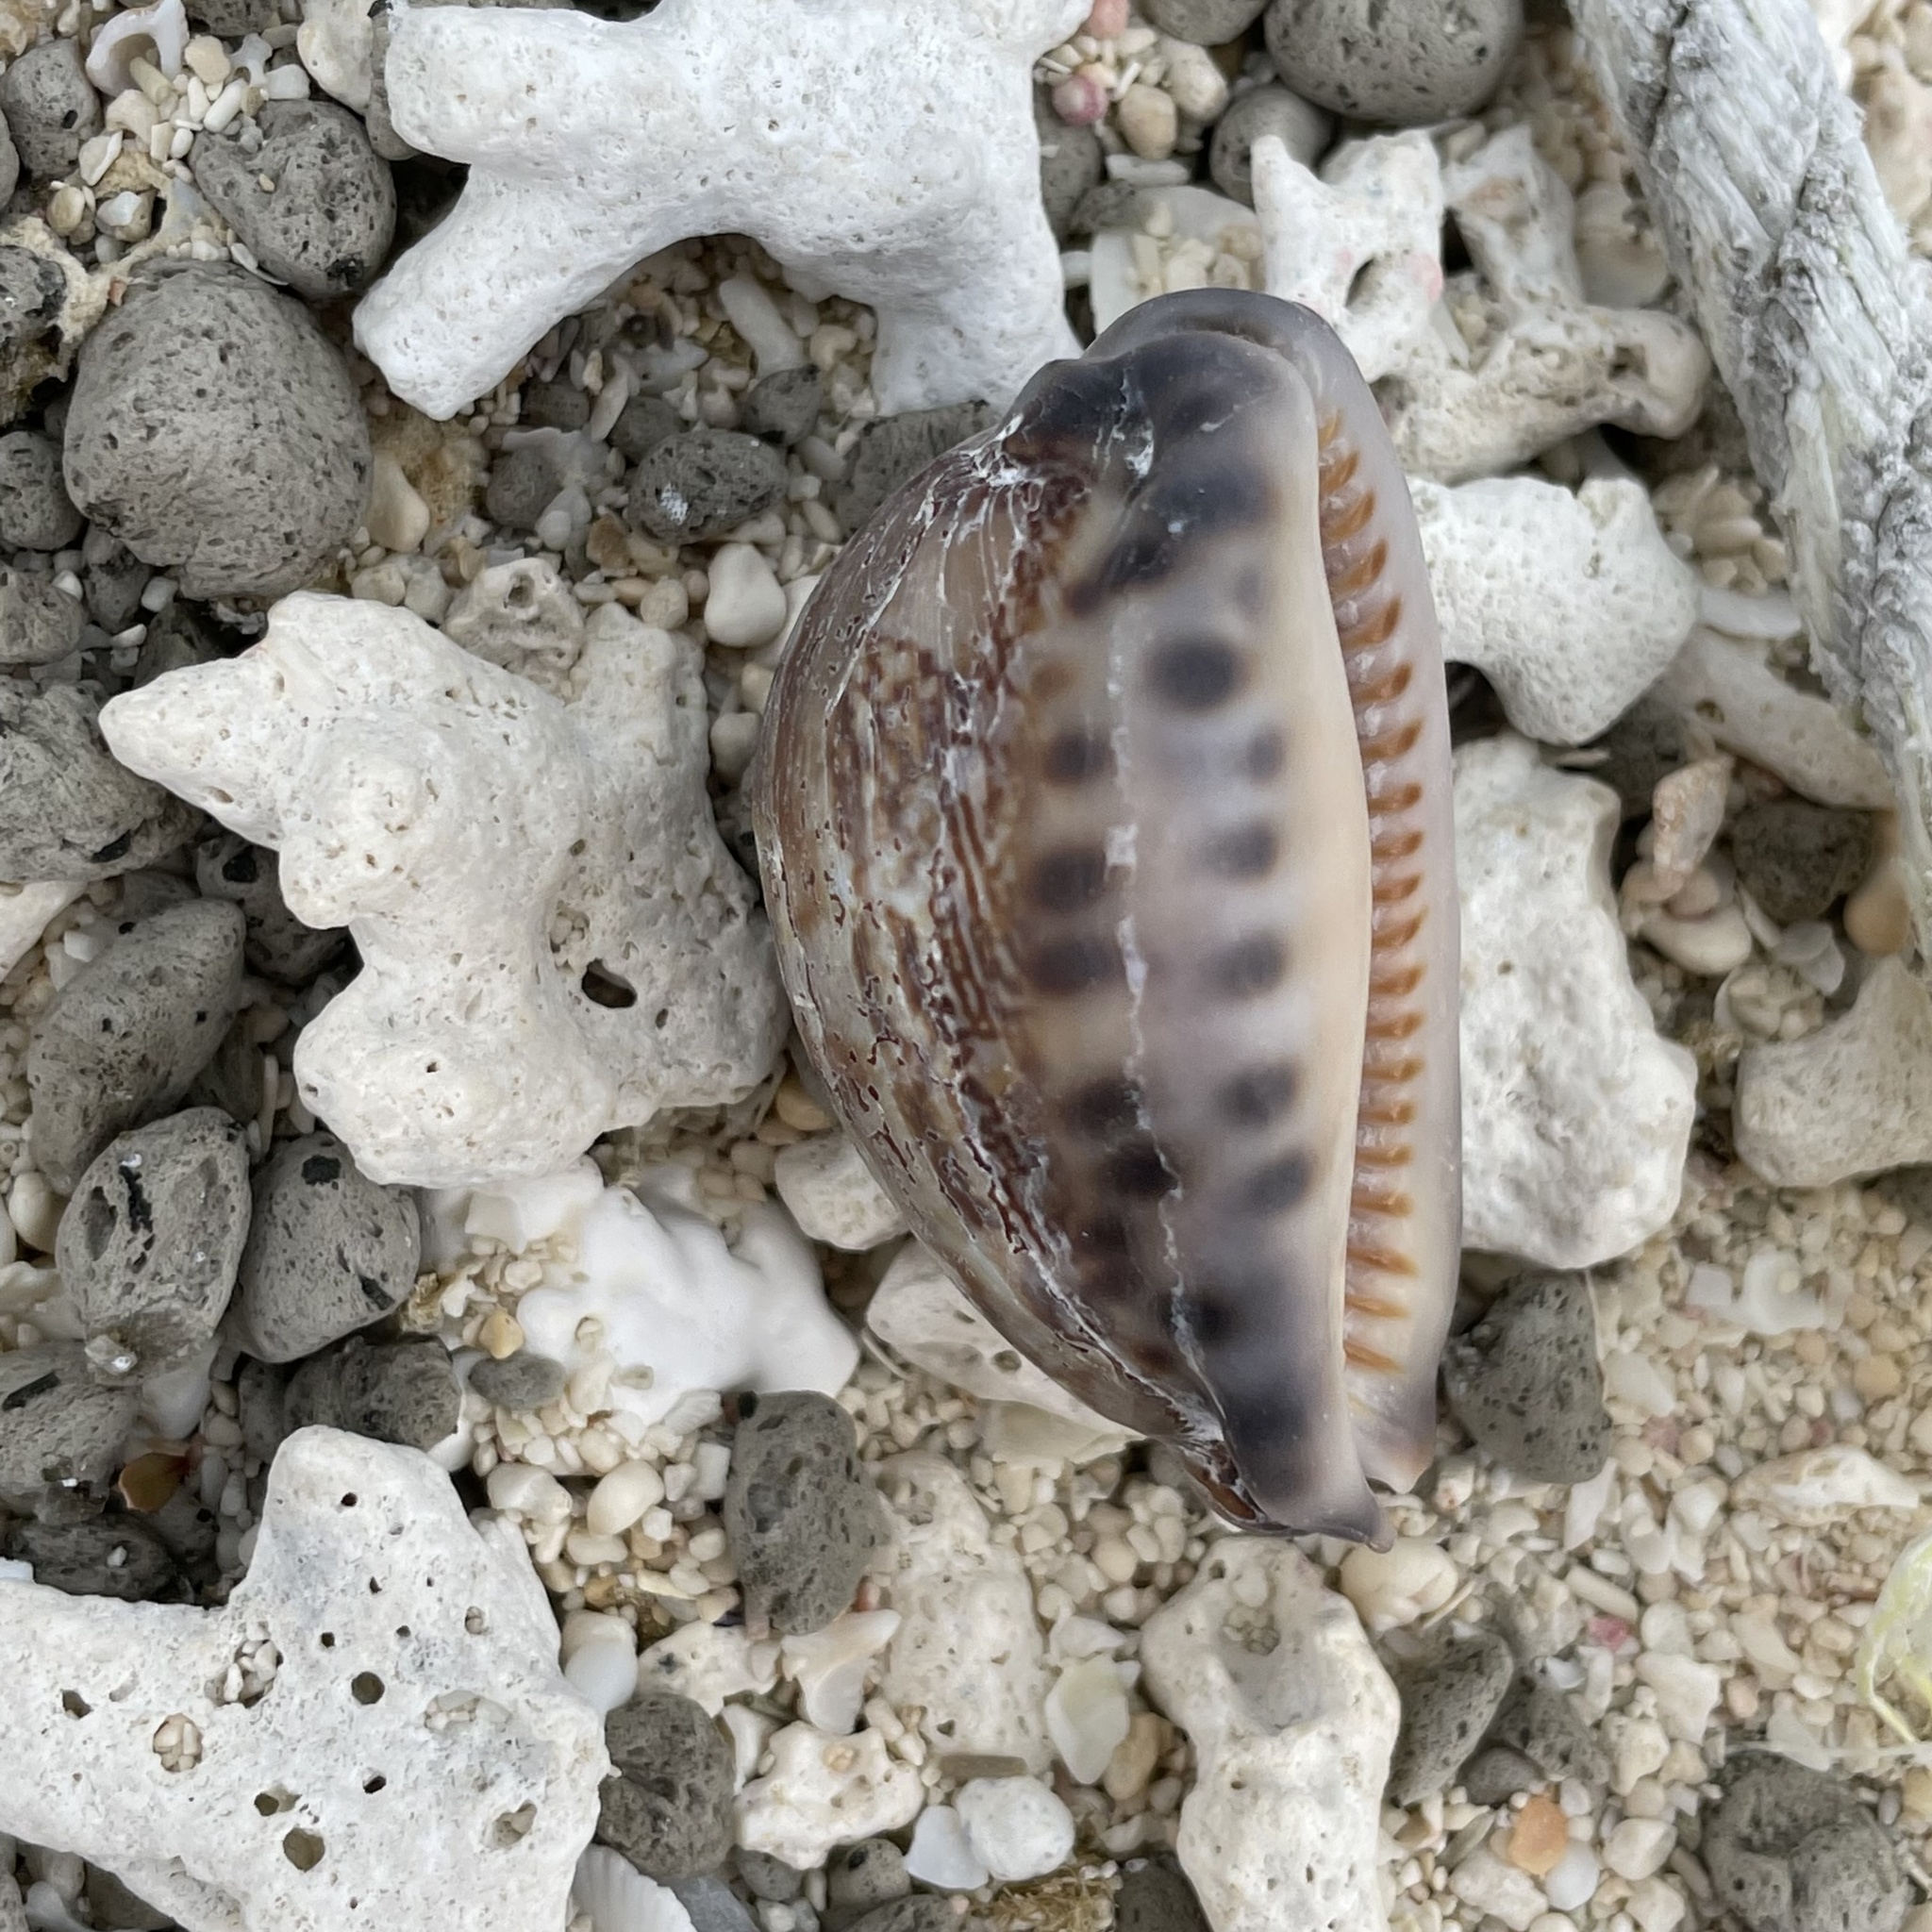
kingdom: Animalia
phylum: Mollusca
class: Gastropoda
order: Littorinimorpha
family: Cypraeidae
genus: Mauritia
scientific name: Mauritia arabica
